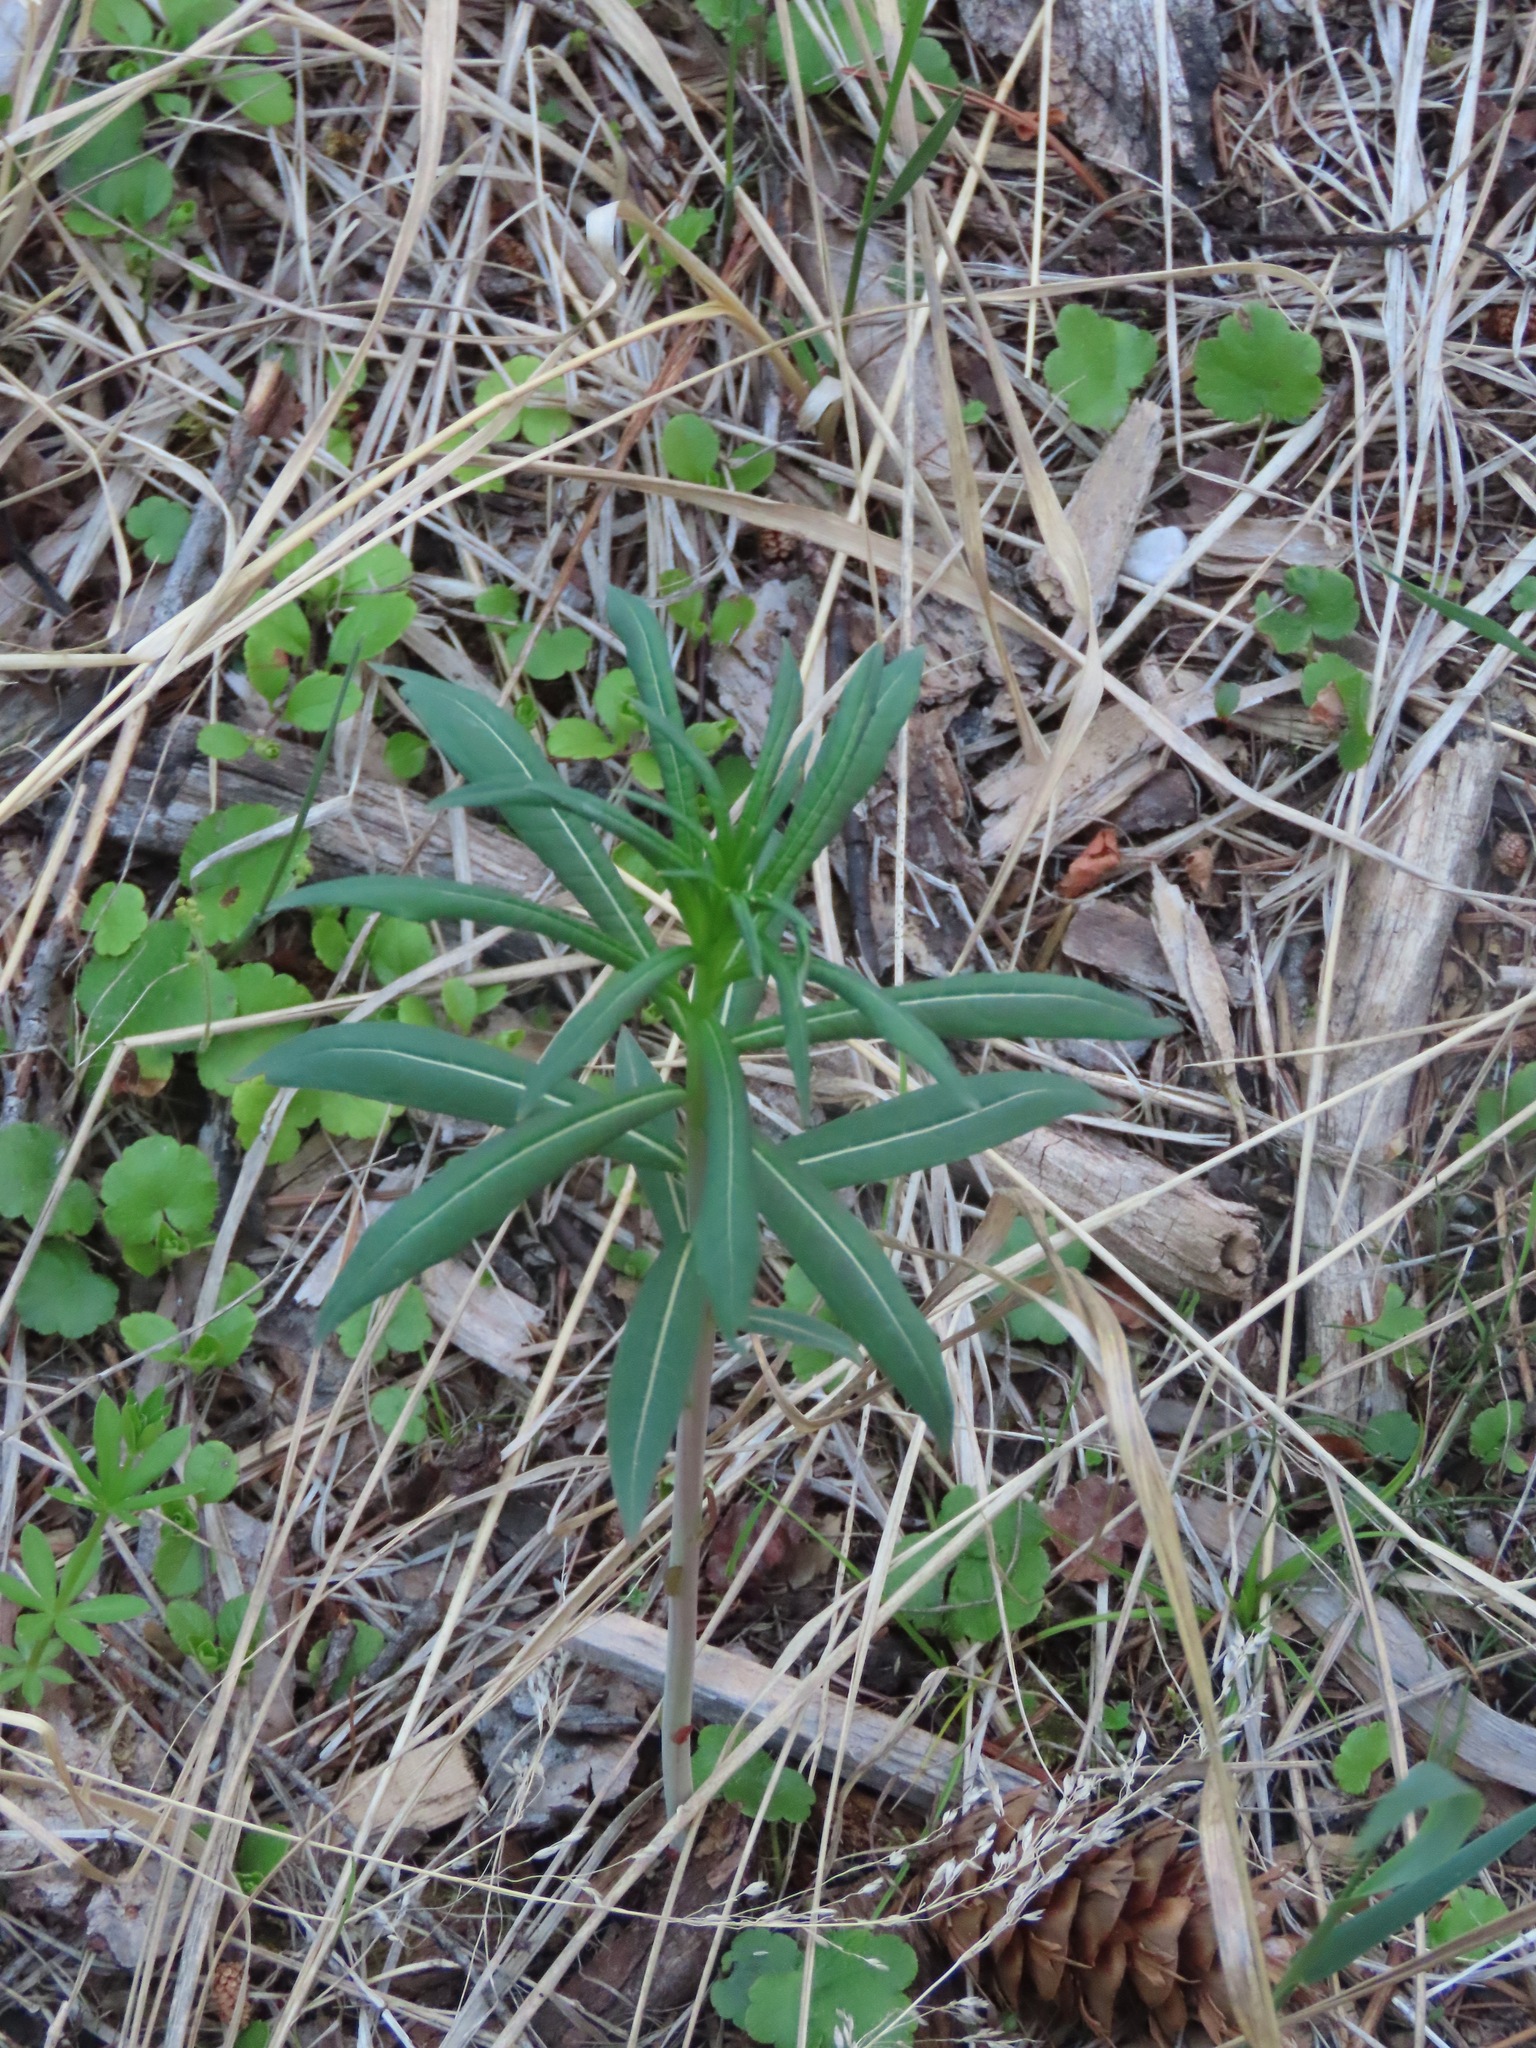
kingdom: Plantae
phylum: Tracheophyta
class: Magnoliopsida
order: Myrtales
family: Onagraceae
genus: Chamaenerion
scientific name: Chamaenerion angustifolium
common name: Fireweed
